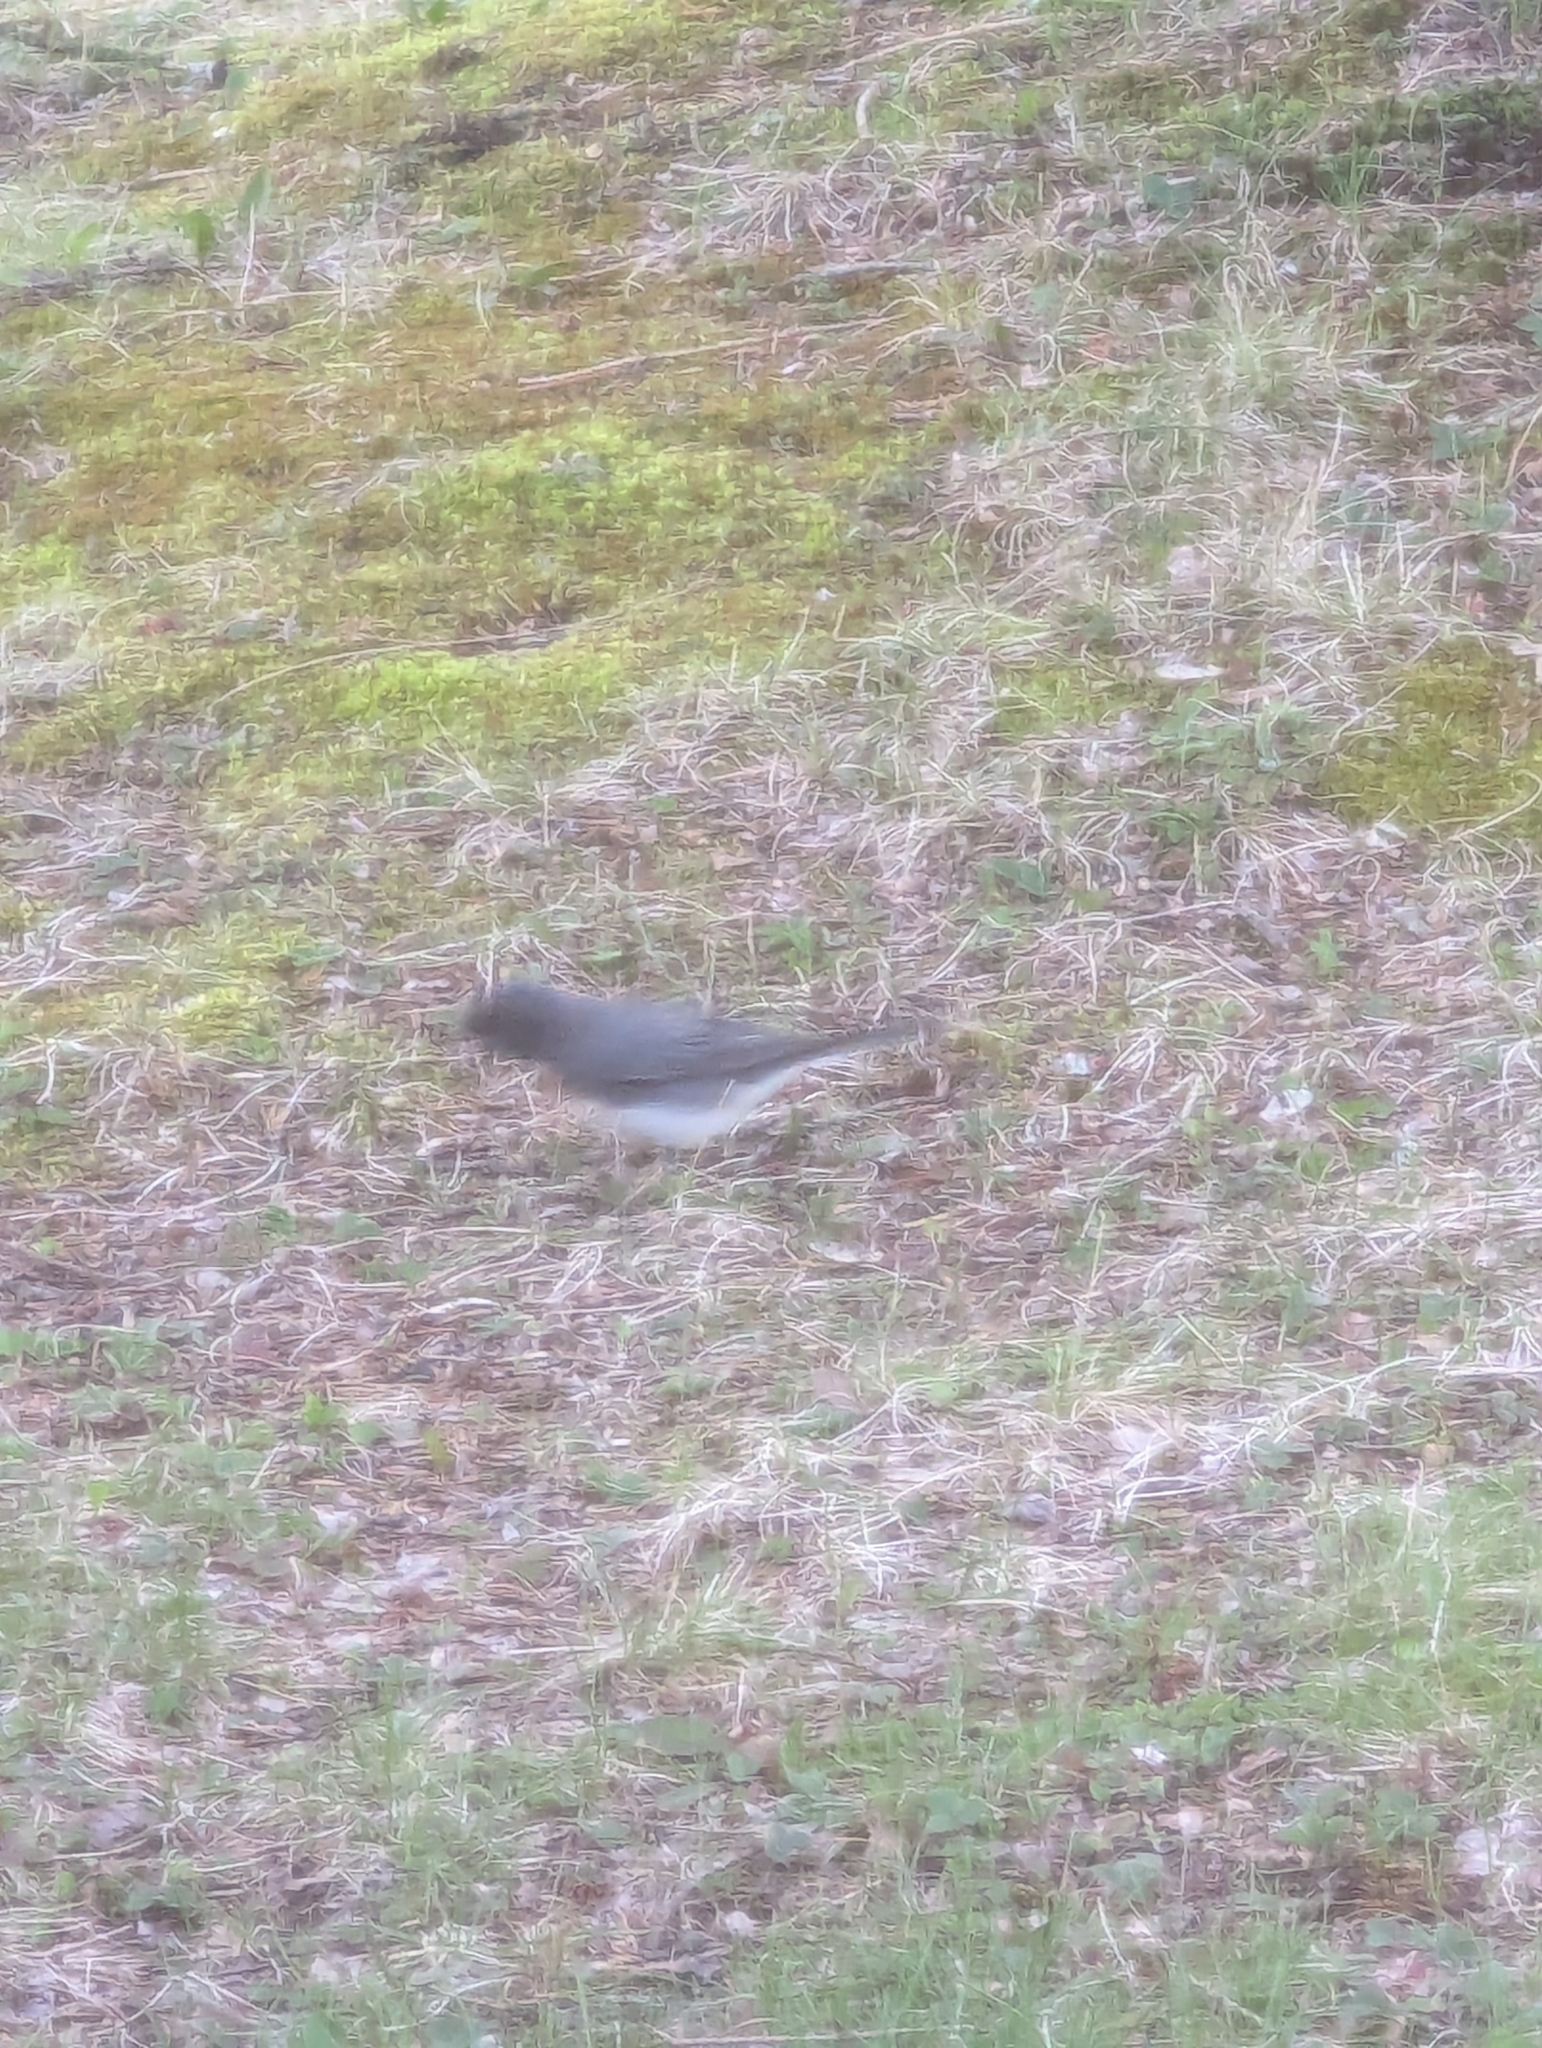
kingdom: Animalia
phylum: Chordata
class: Aves
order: Passeriformes
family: Passerellidae
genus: Junco
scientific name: Junco hyemalis
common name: Dark-eyed junco
